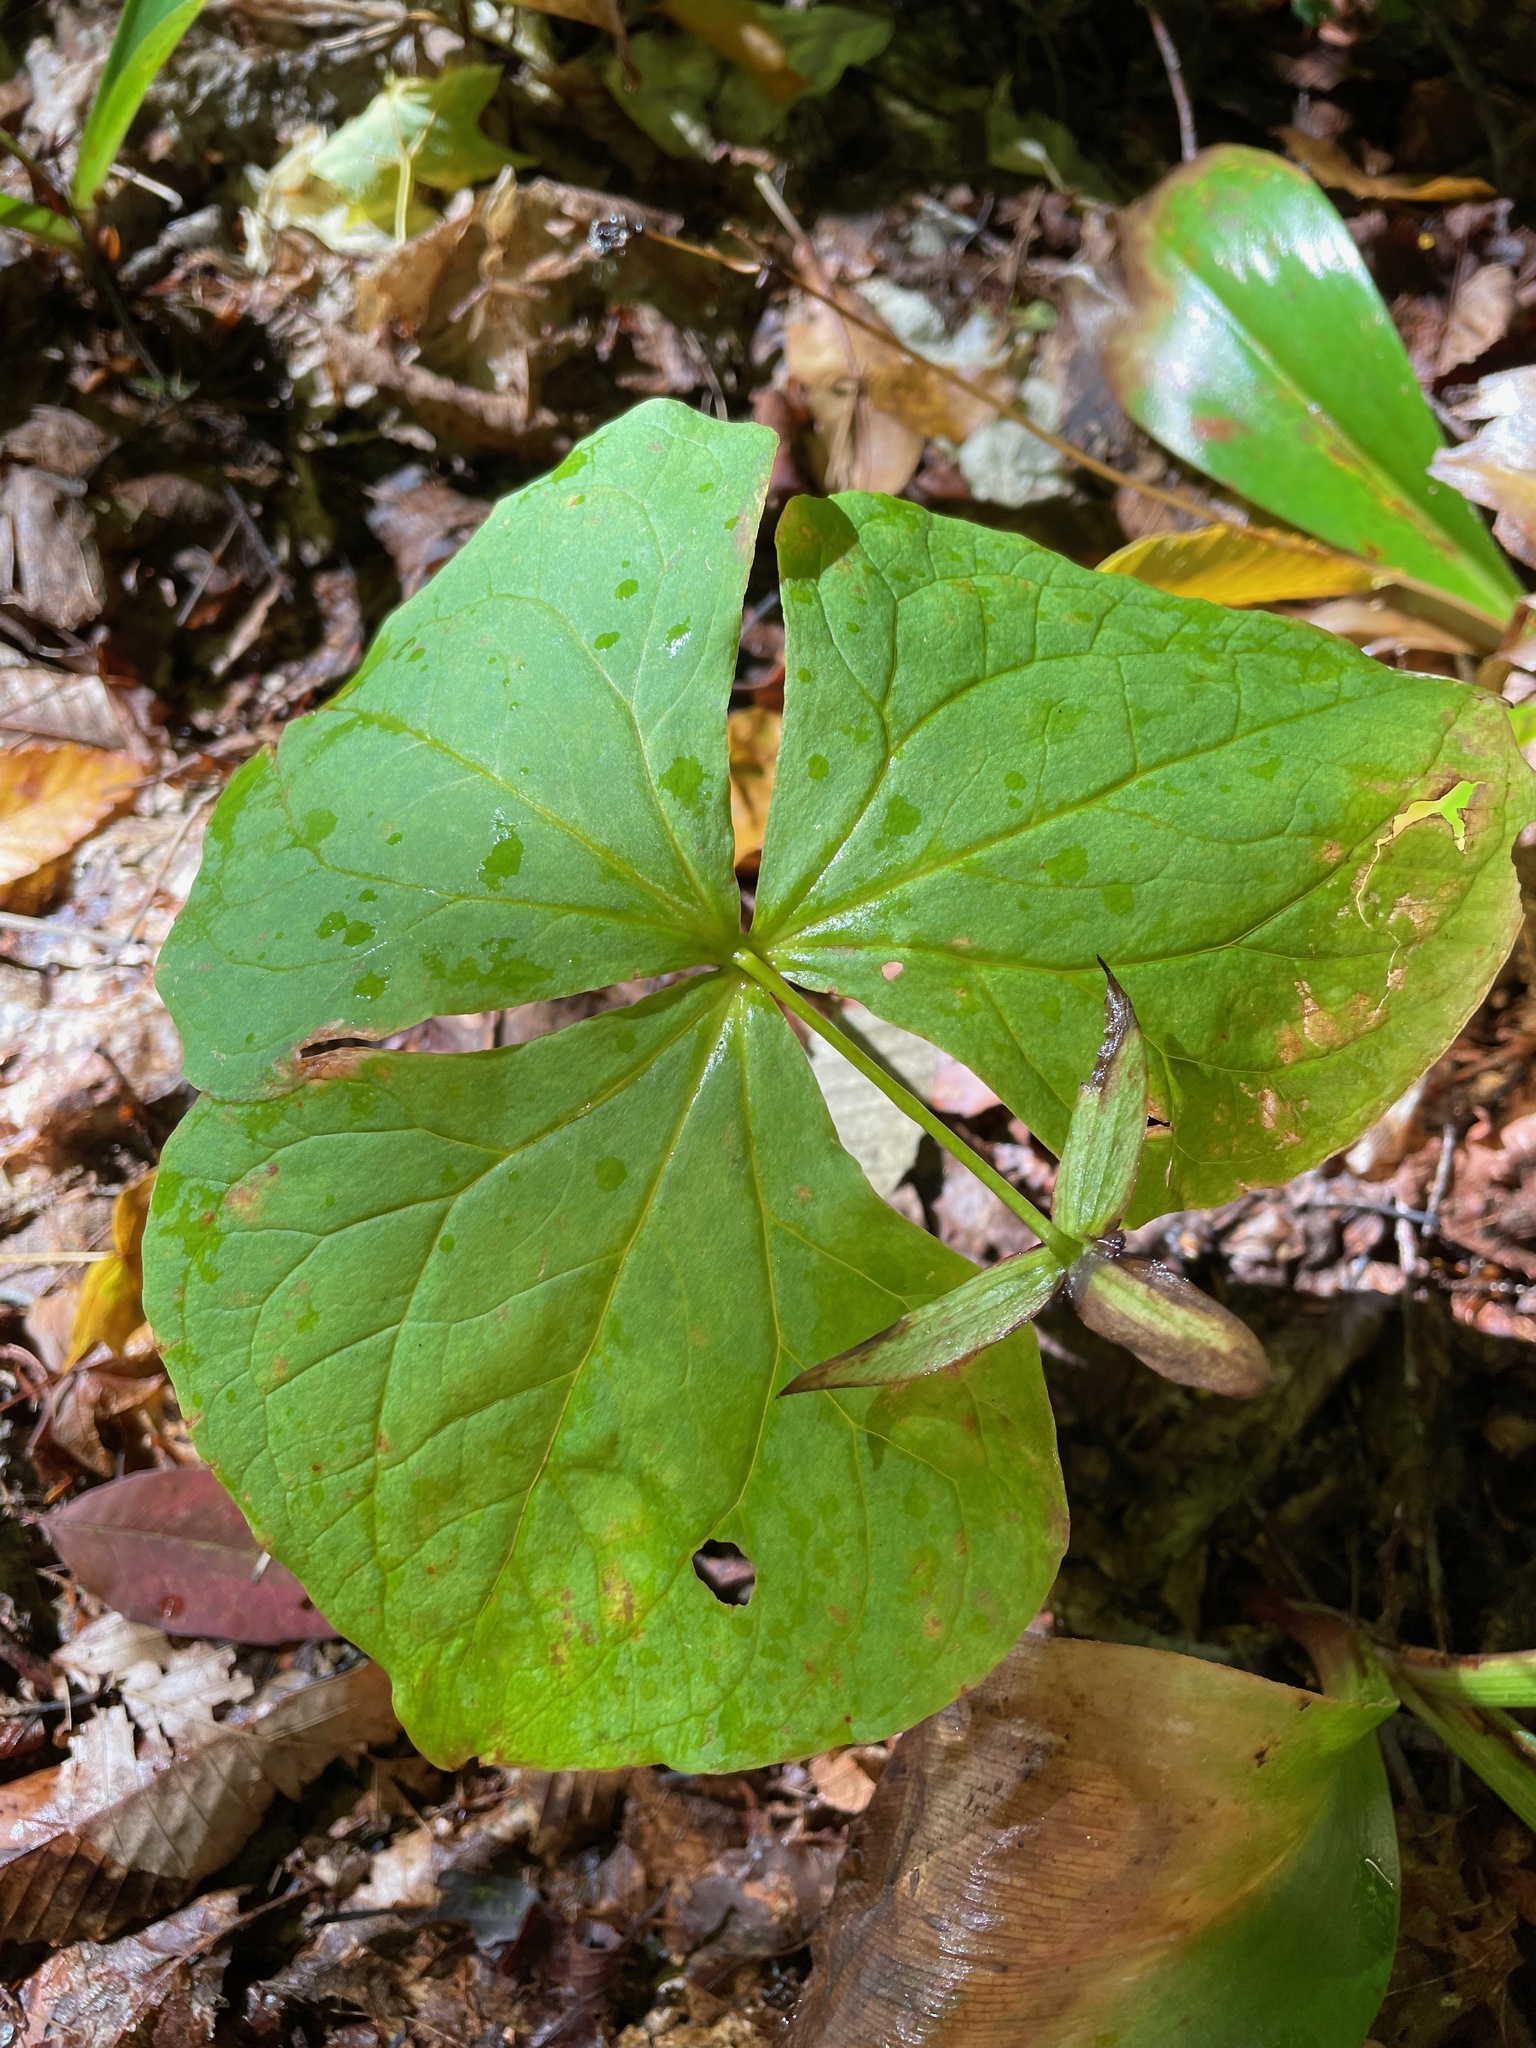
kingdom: Plantae
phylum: Tracheophyta
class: Liliopsida
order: Liliales
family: Melanthiaceae
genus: Trillium
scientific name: Trillium erectum
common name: Purple trillium
